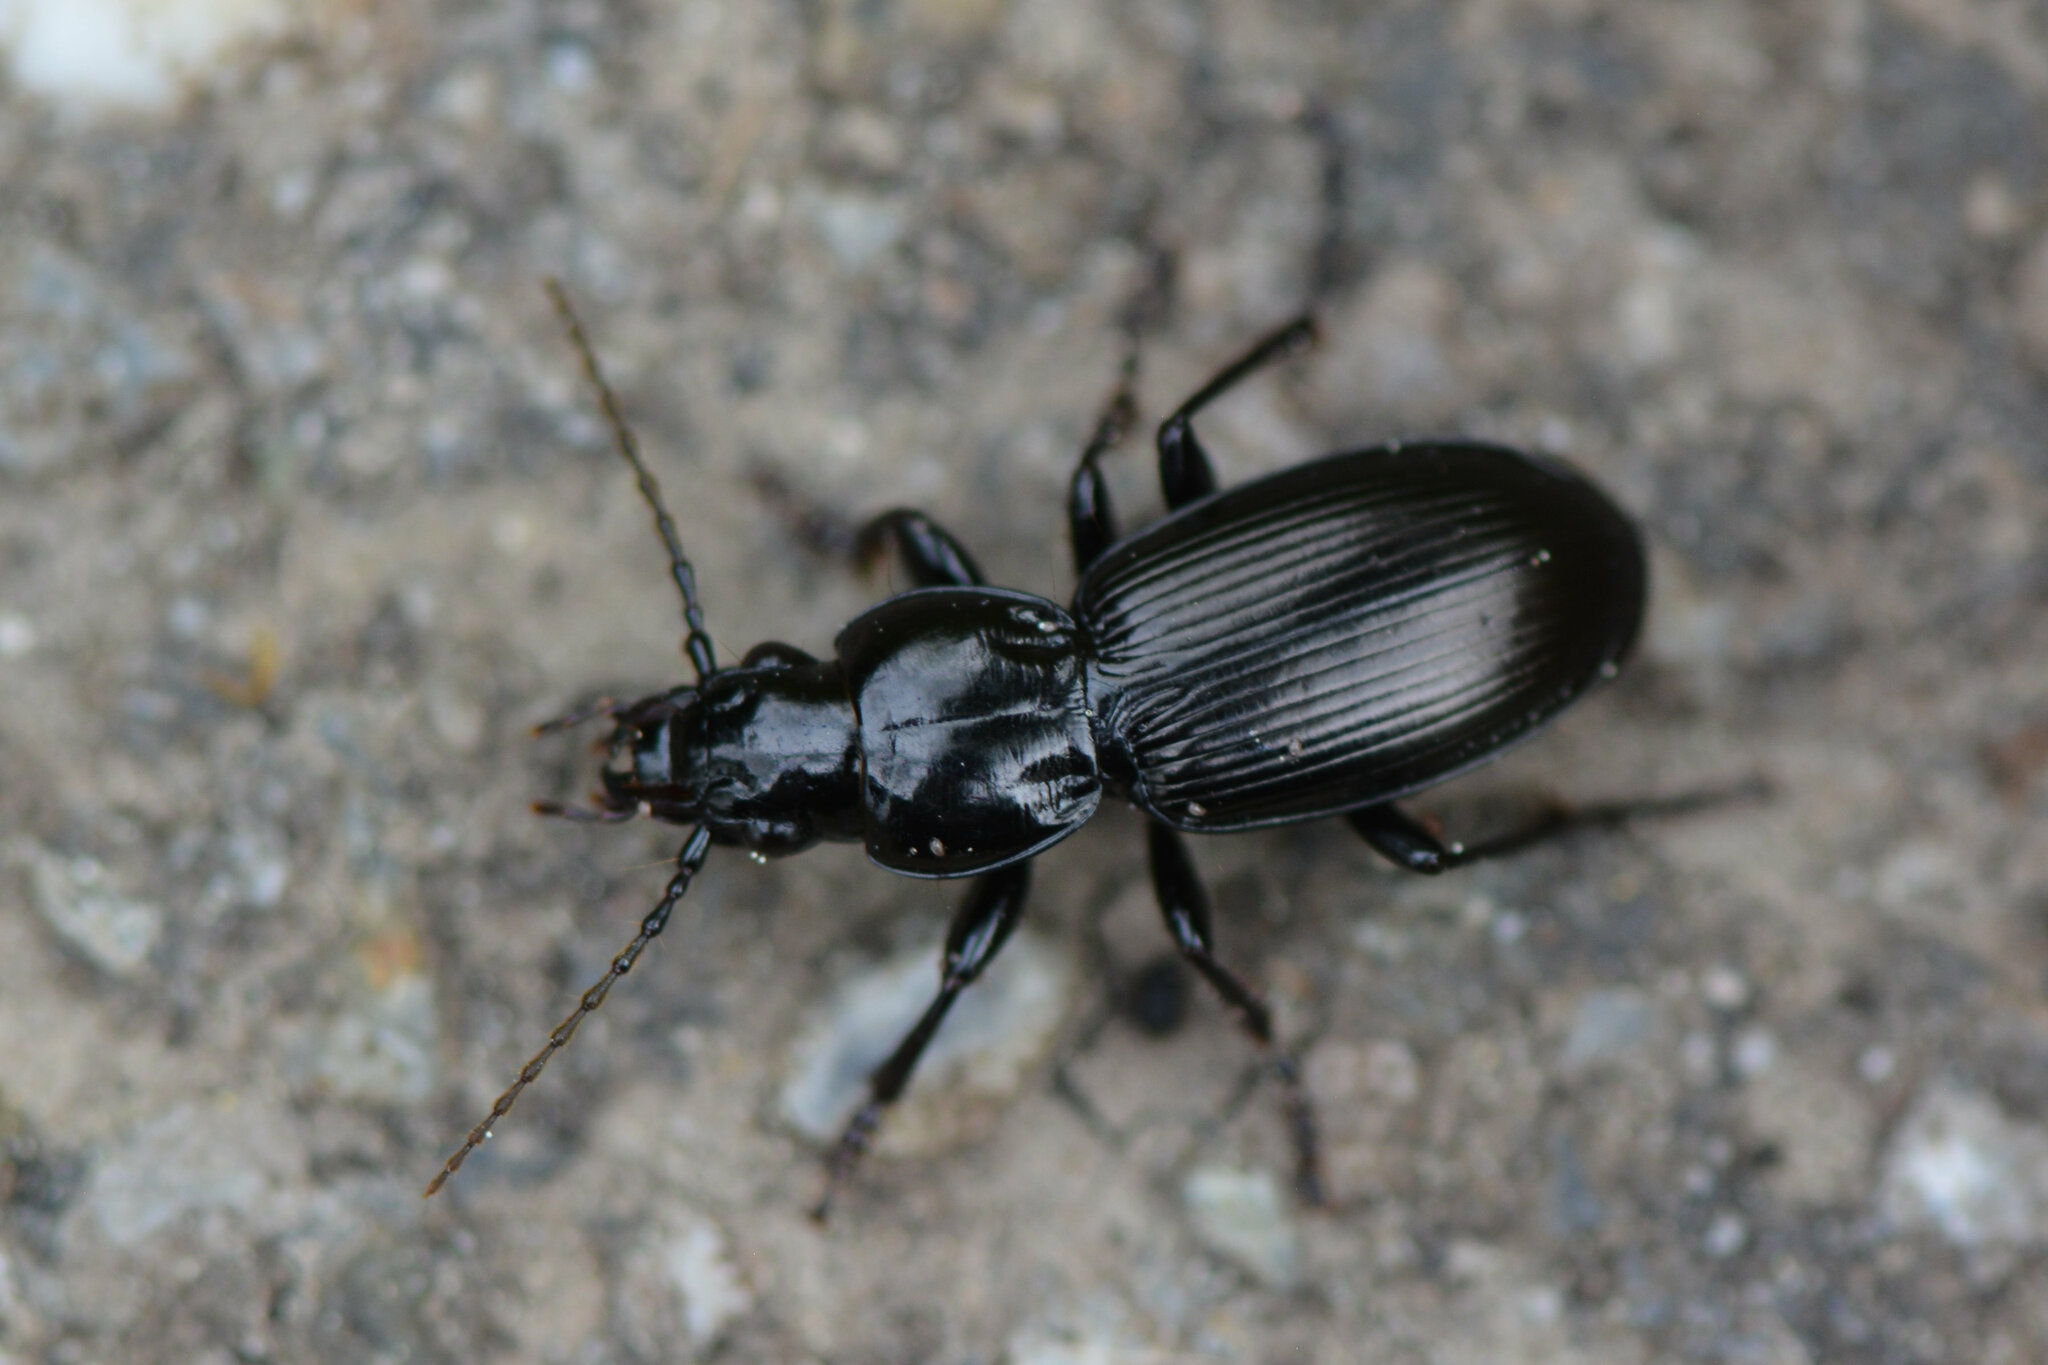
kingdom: Animalia
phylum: Arthropoda
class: Insecta
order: Coleoptera
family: Carabidae
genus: Pterostichus
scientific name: Pterostichus madidus
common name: Black clock
